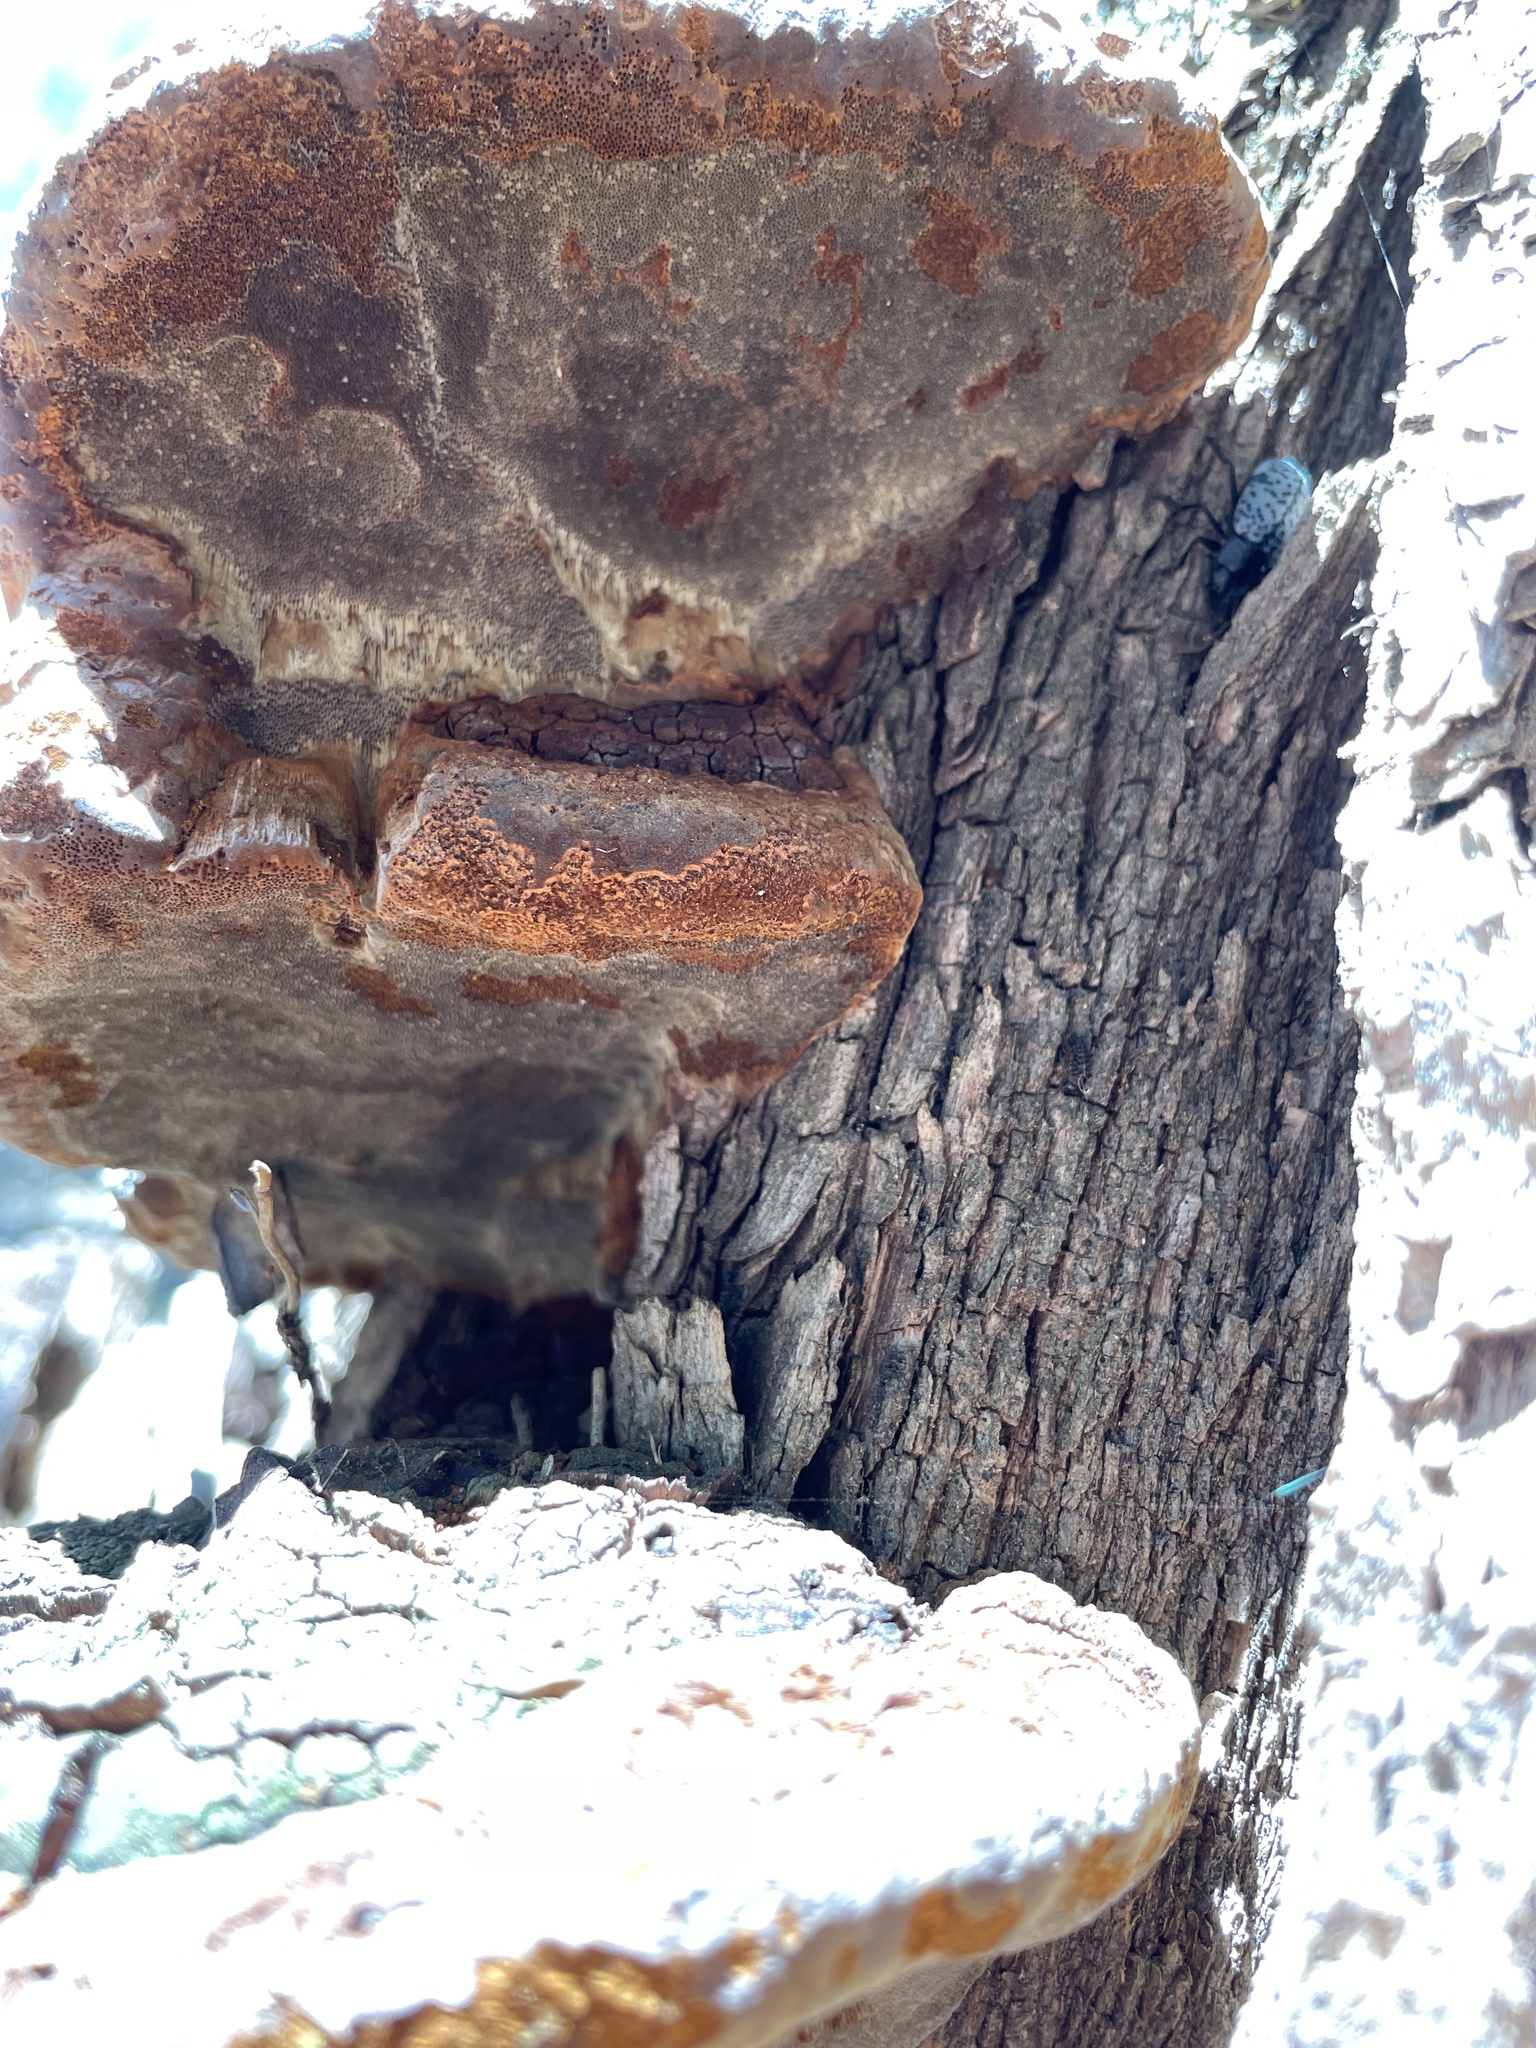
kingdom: Fungi
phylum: Basidiomycota
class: Agaricomycetes
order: Hymenochaetales
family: Hymenochaetaceae
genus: Phellinus
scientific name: Phellinus robiniae
